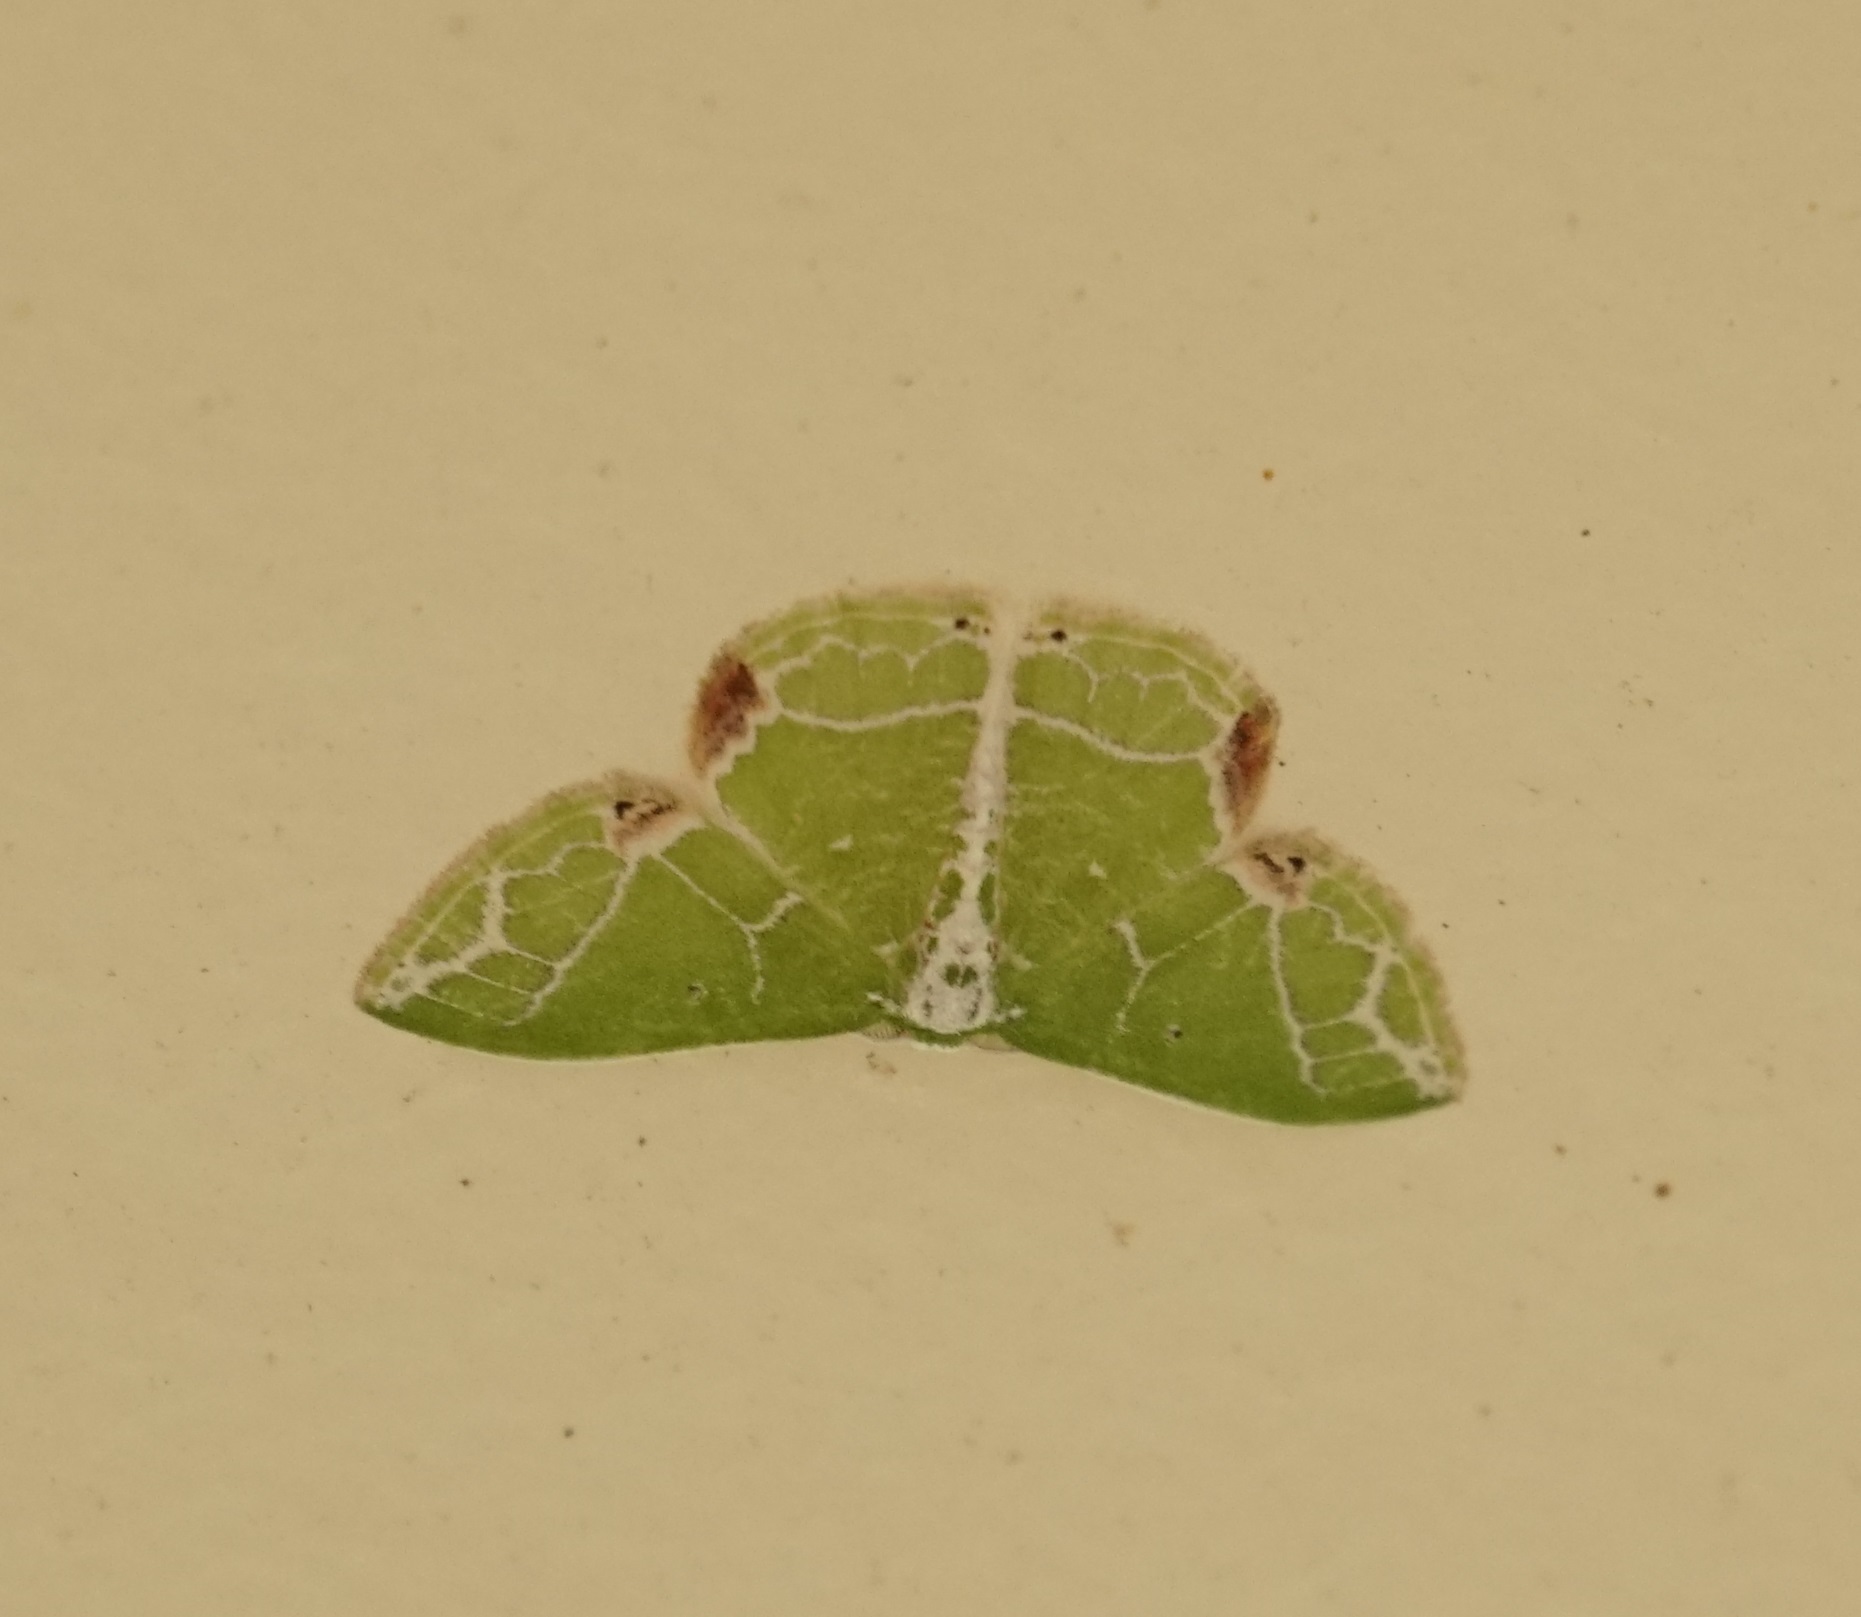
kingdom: Animalia
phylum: Arthropoda
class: Insecta
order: Lepidoptera
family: Geometridae
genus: Protuliocnemis
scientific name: Protuliocnemis biplagiata
